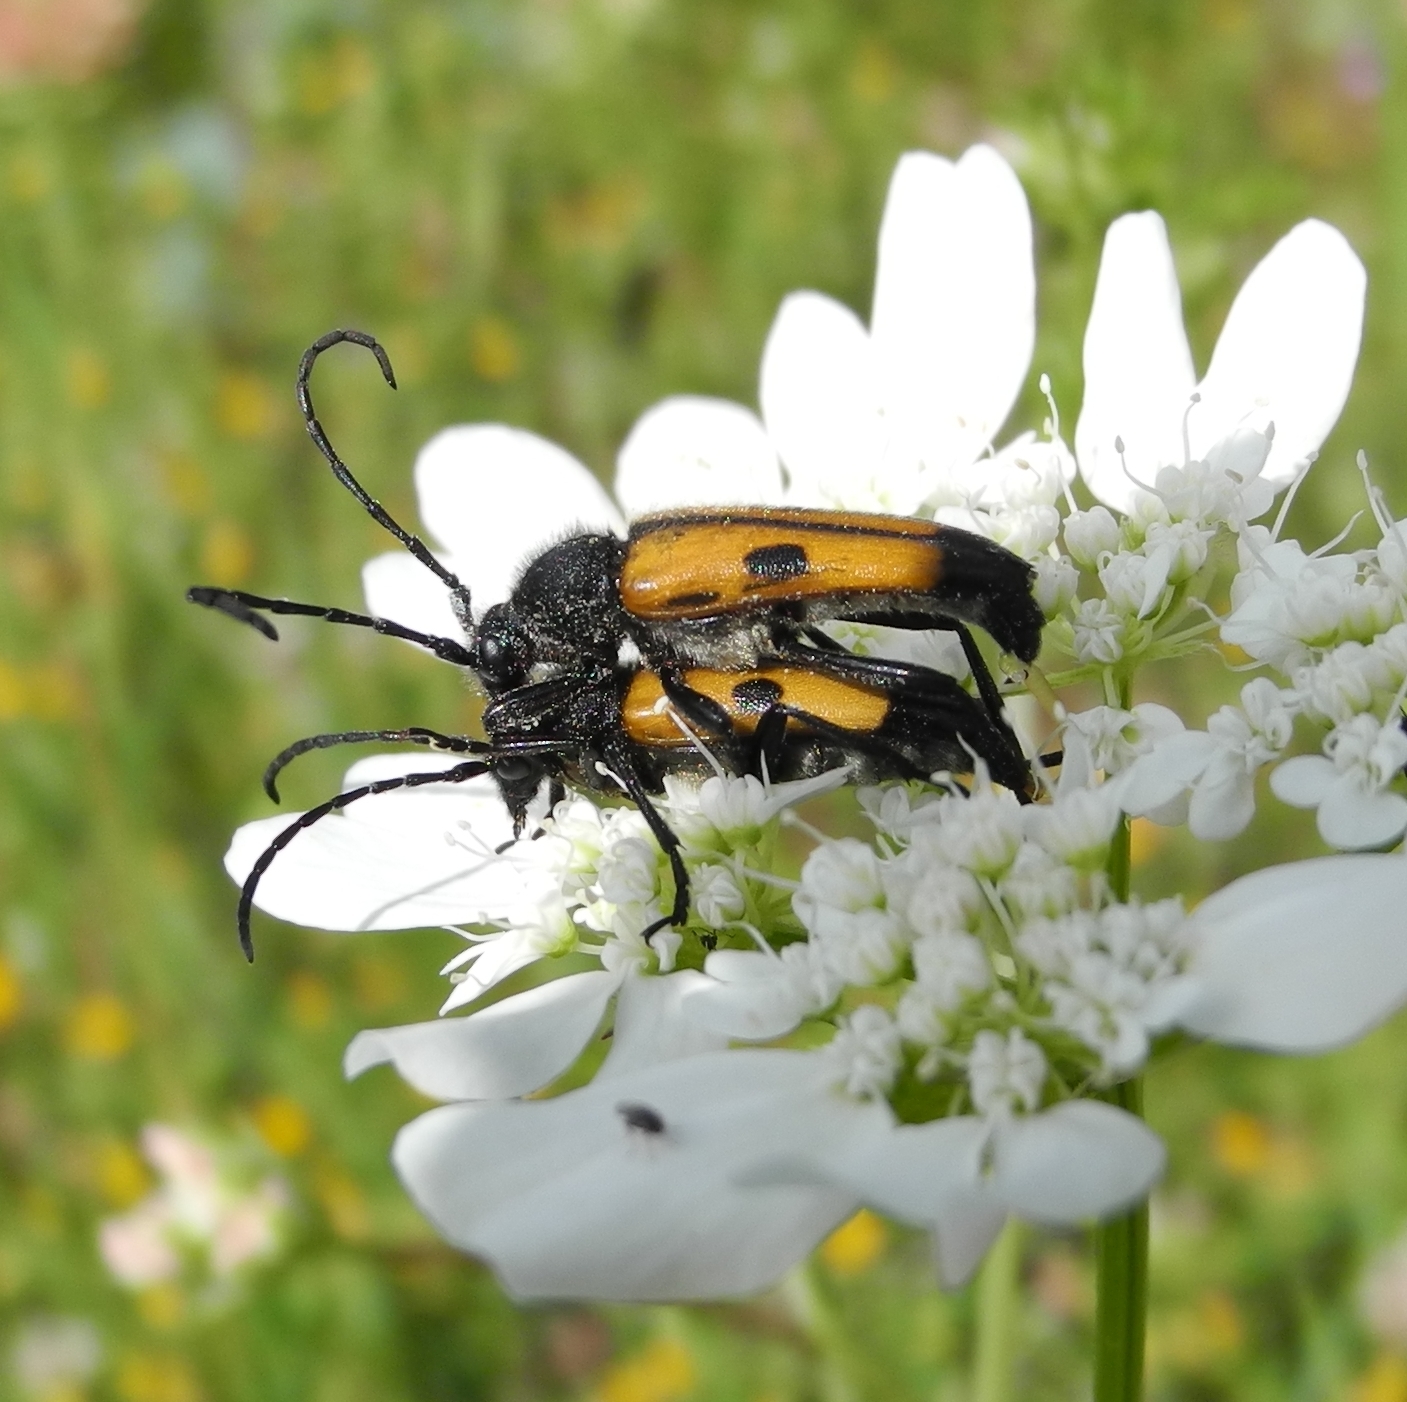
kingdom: Animalia
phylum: Arthropoda
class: Insecta
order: Coleoptera
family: Cerambycidae
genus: Vadonia
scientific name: Vadonia dojranensis
